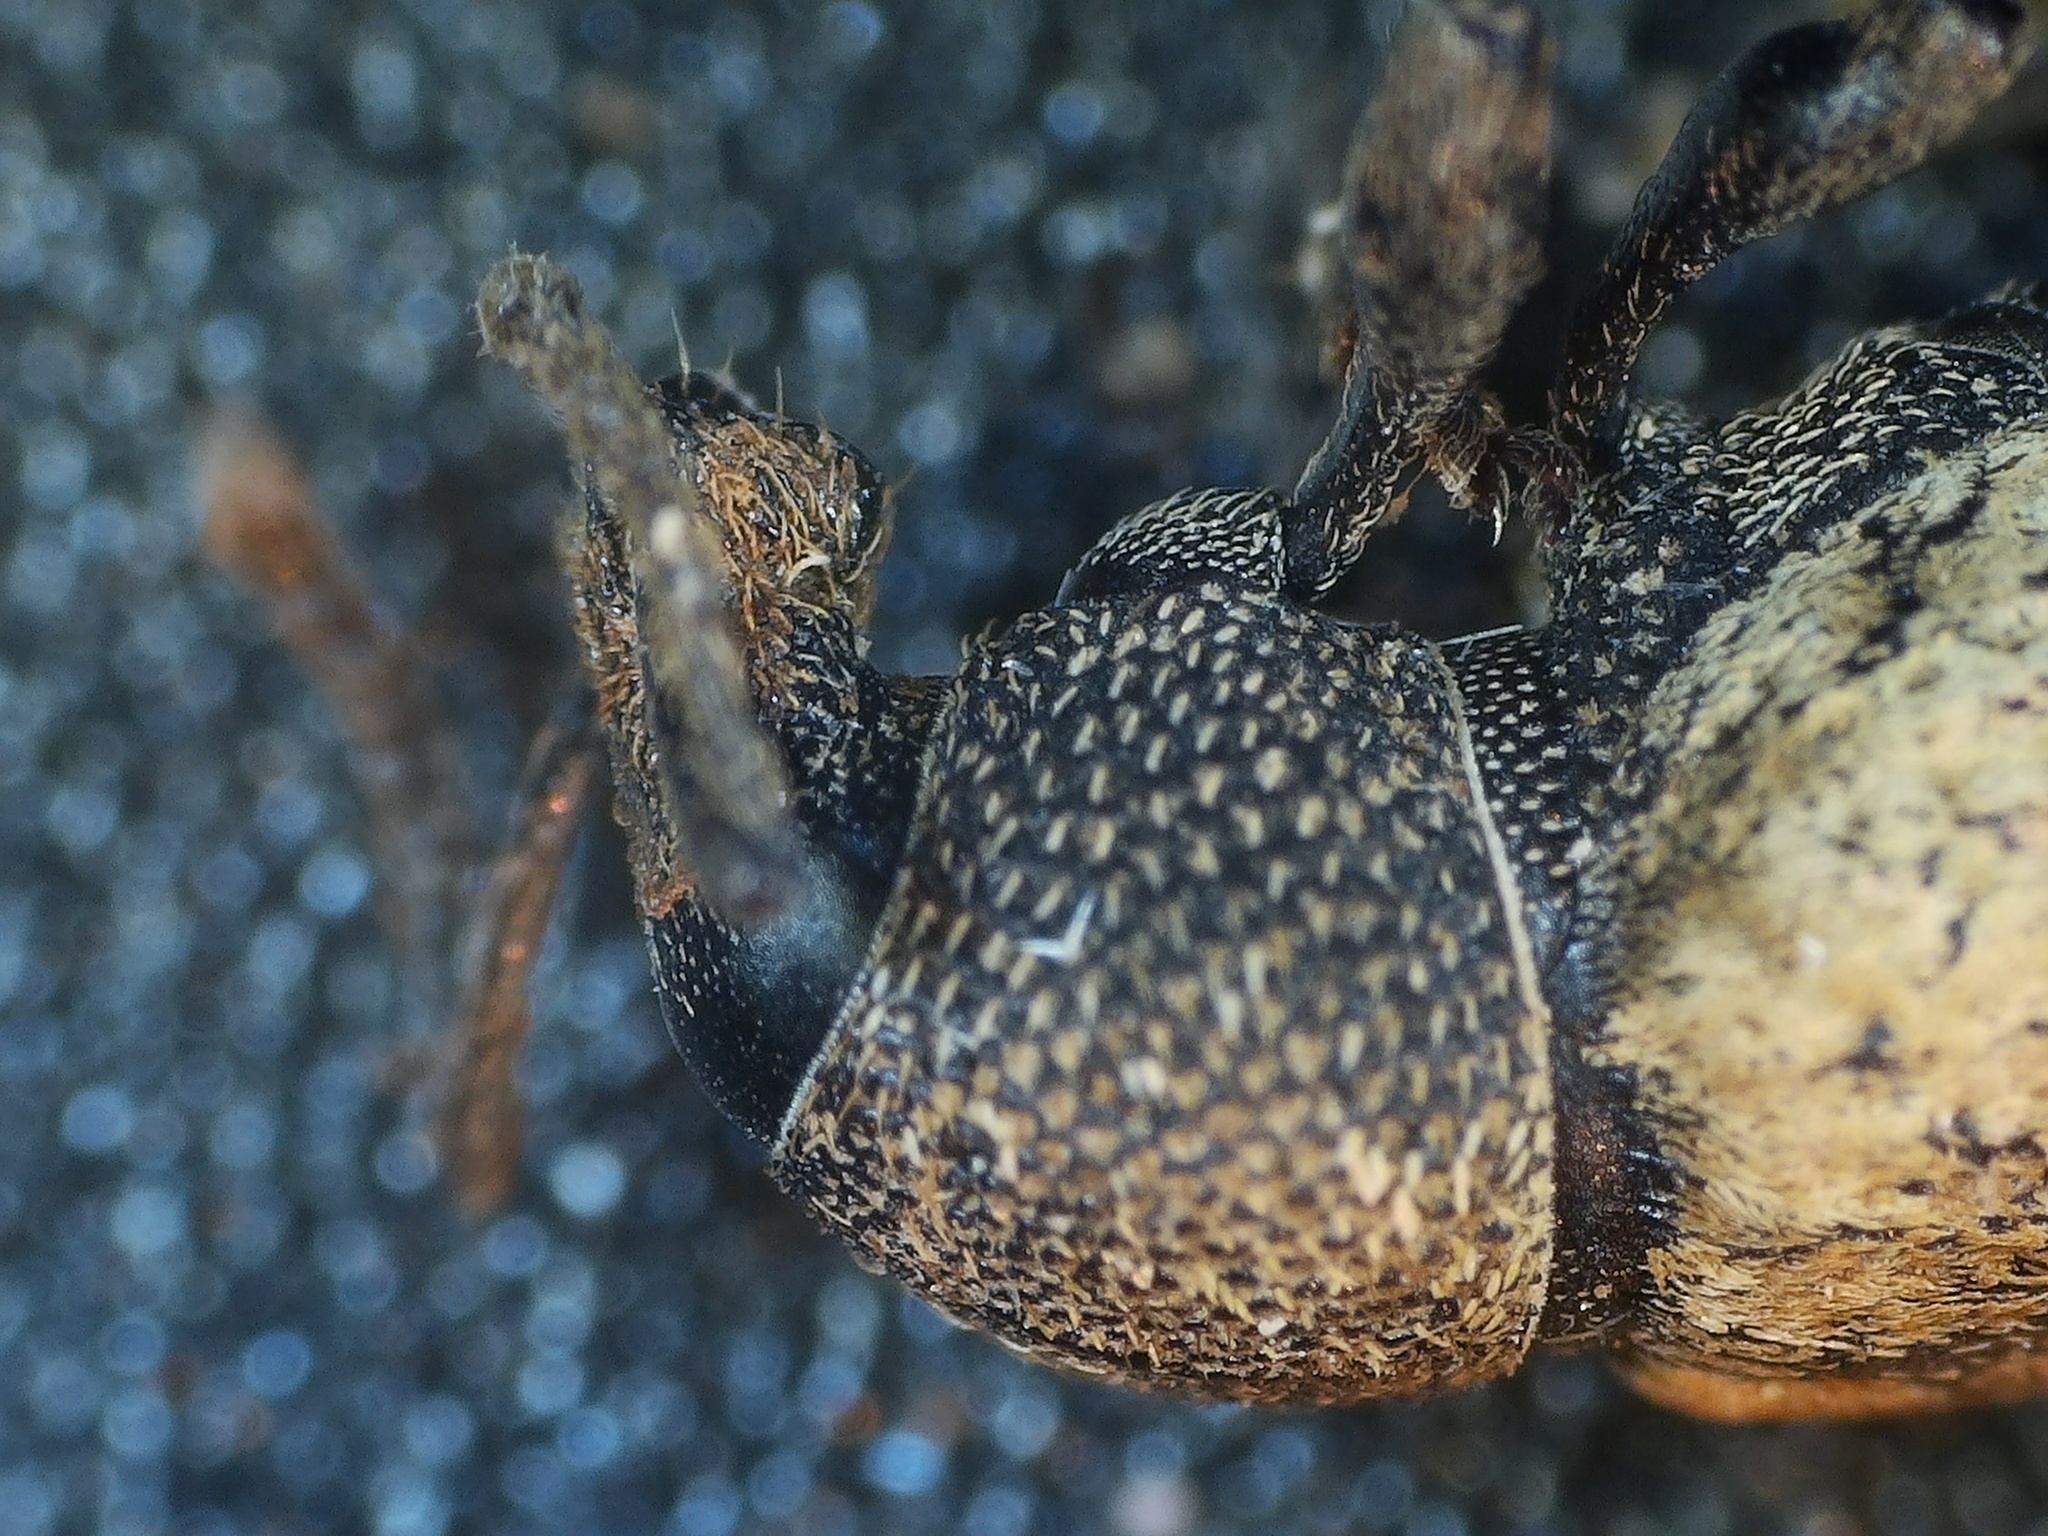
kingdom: Animalia
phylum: Arthropoda
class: Insecta
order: Coleoptera
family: Curculionidae
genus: Otiorhynchus
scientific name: Otiorhynchus raucus
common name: Weevil
